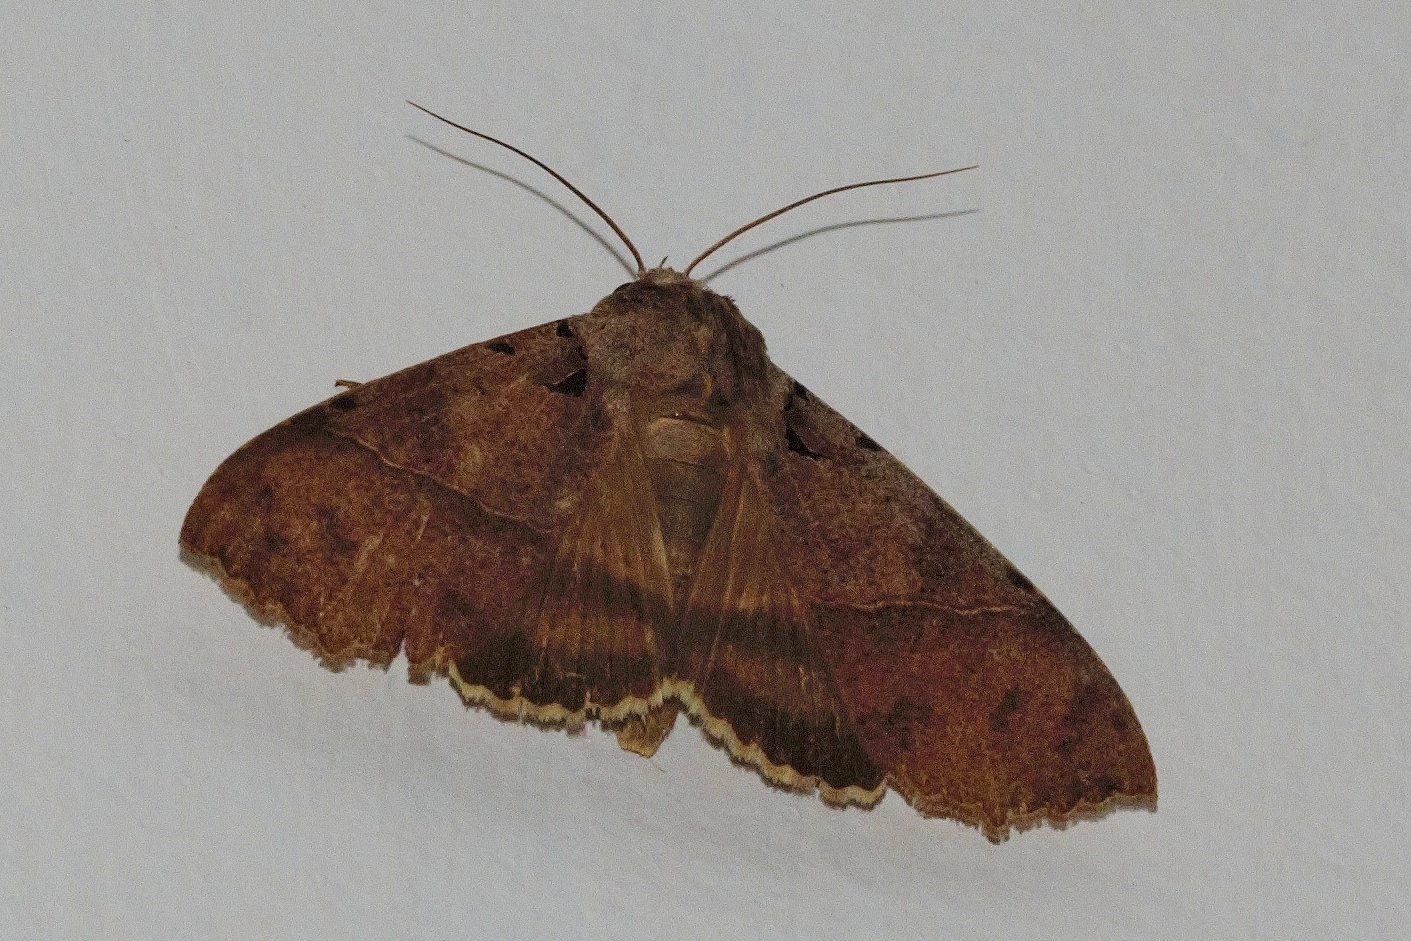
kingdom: Animalia
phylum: Arthropoda
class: Insecta
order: Lepidoptera
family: Erebidae
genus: Serrodes
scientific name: Serrodes campana
